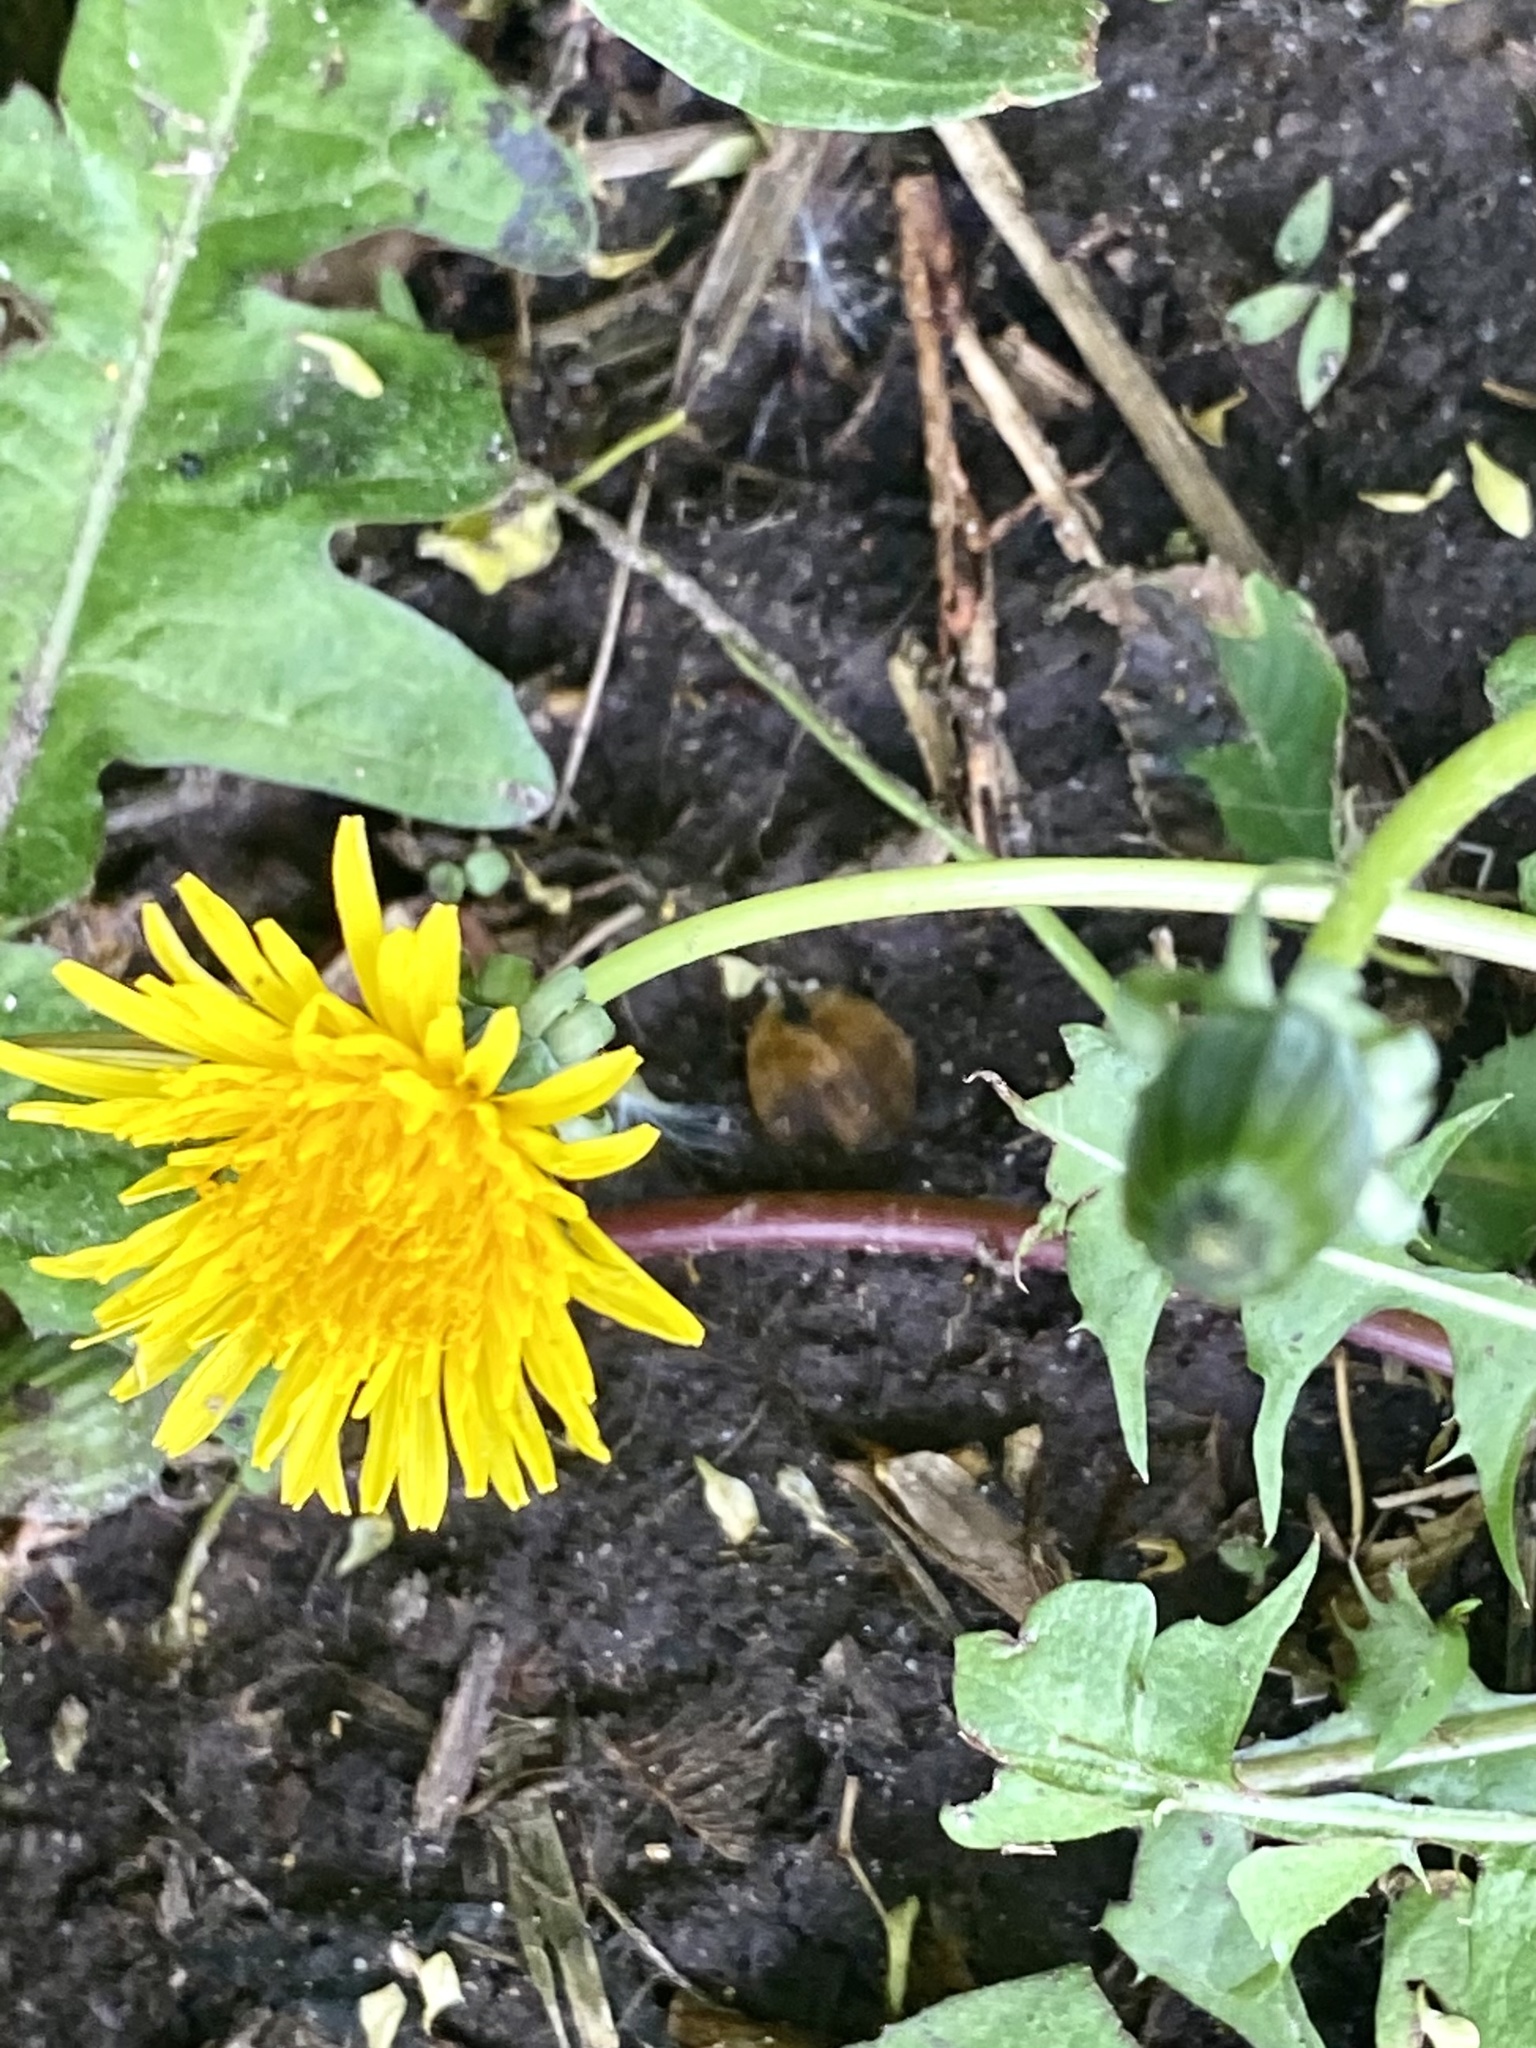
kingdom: Plantae
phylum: Tracheophyta
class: Magnoliopsida
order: Asterales
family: Asteraceae
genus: Taraxacum
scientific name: Taraxacum
